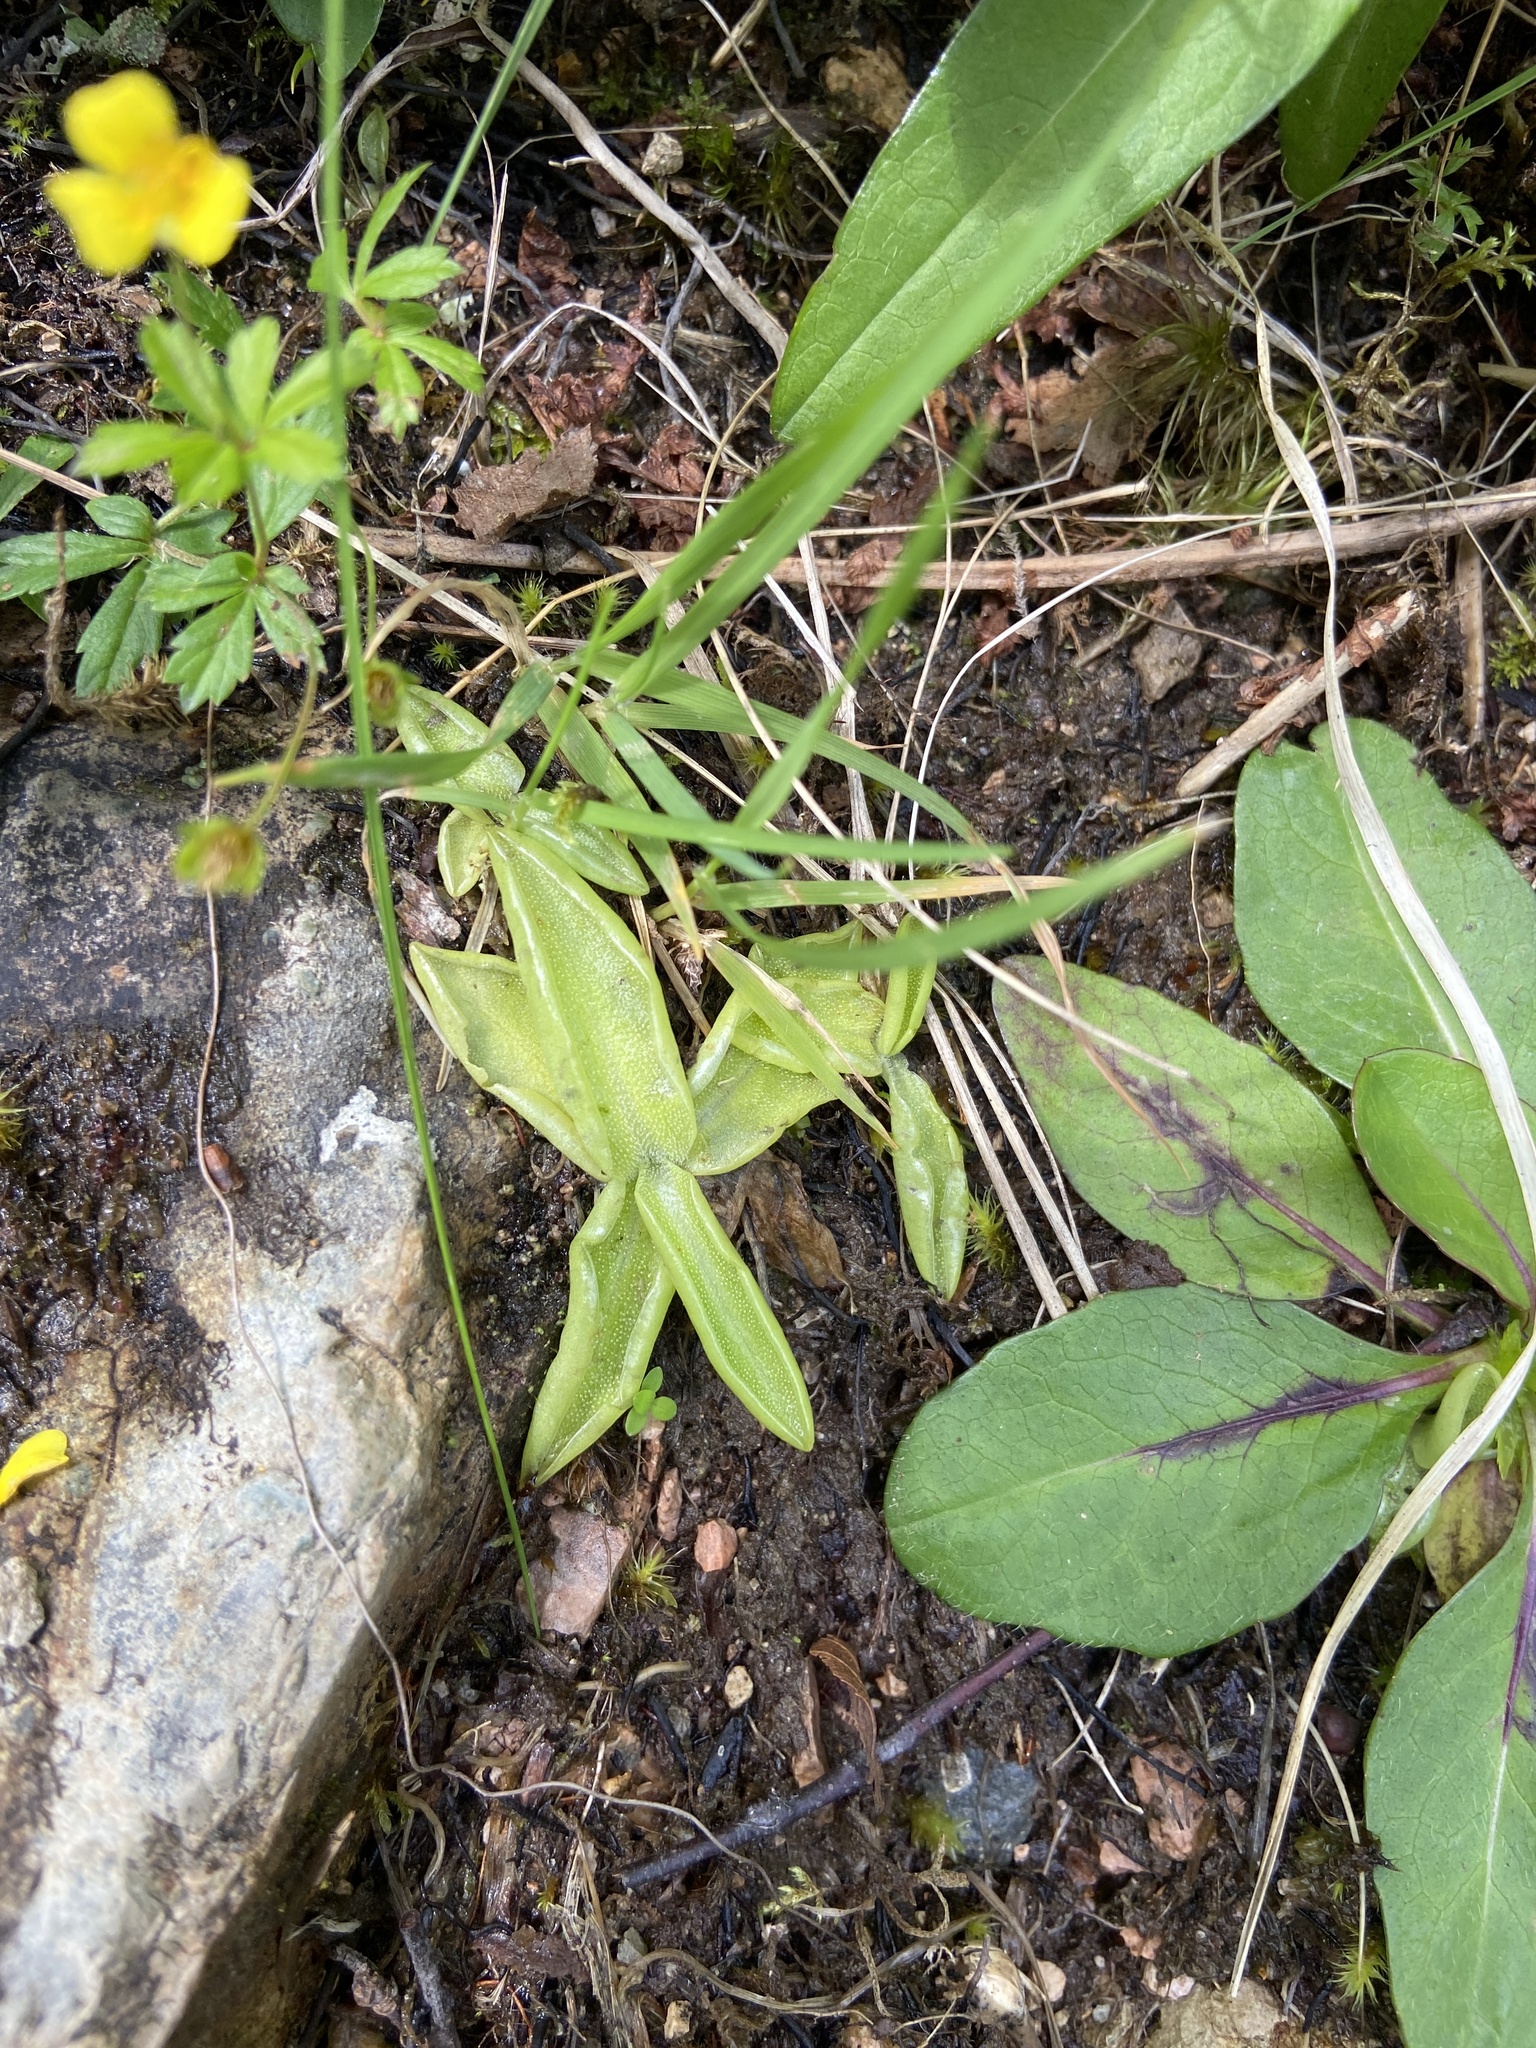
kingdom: Plantae
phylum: Tracheophyta
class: Magnoliopsida
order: Lamiales
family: Lentibulariaceae
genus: Pinguicula
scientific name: Pinguicula vulgaris
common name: Common butterwort
